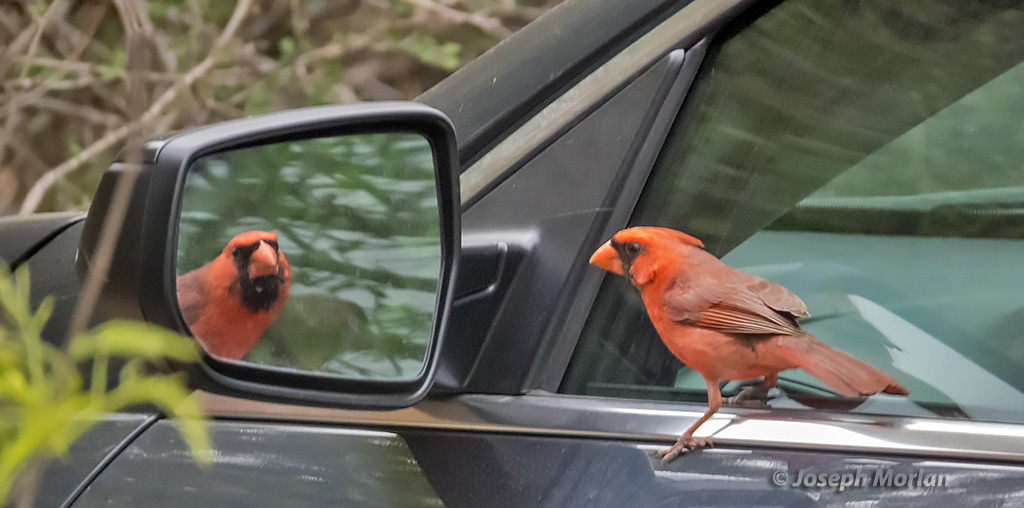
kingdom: Animalia
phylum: Chordata
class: Aves
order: Passeriformes
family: Cardinalidae
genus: Cardinalis
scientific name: Cardinalis cardinalis
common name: Northern cardinal
